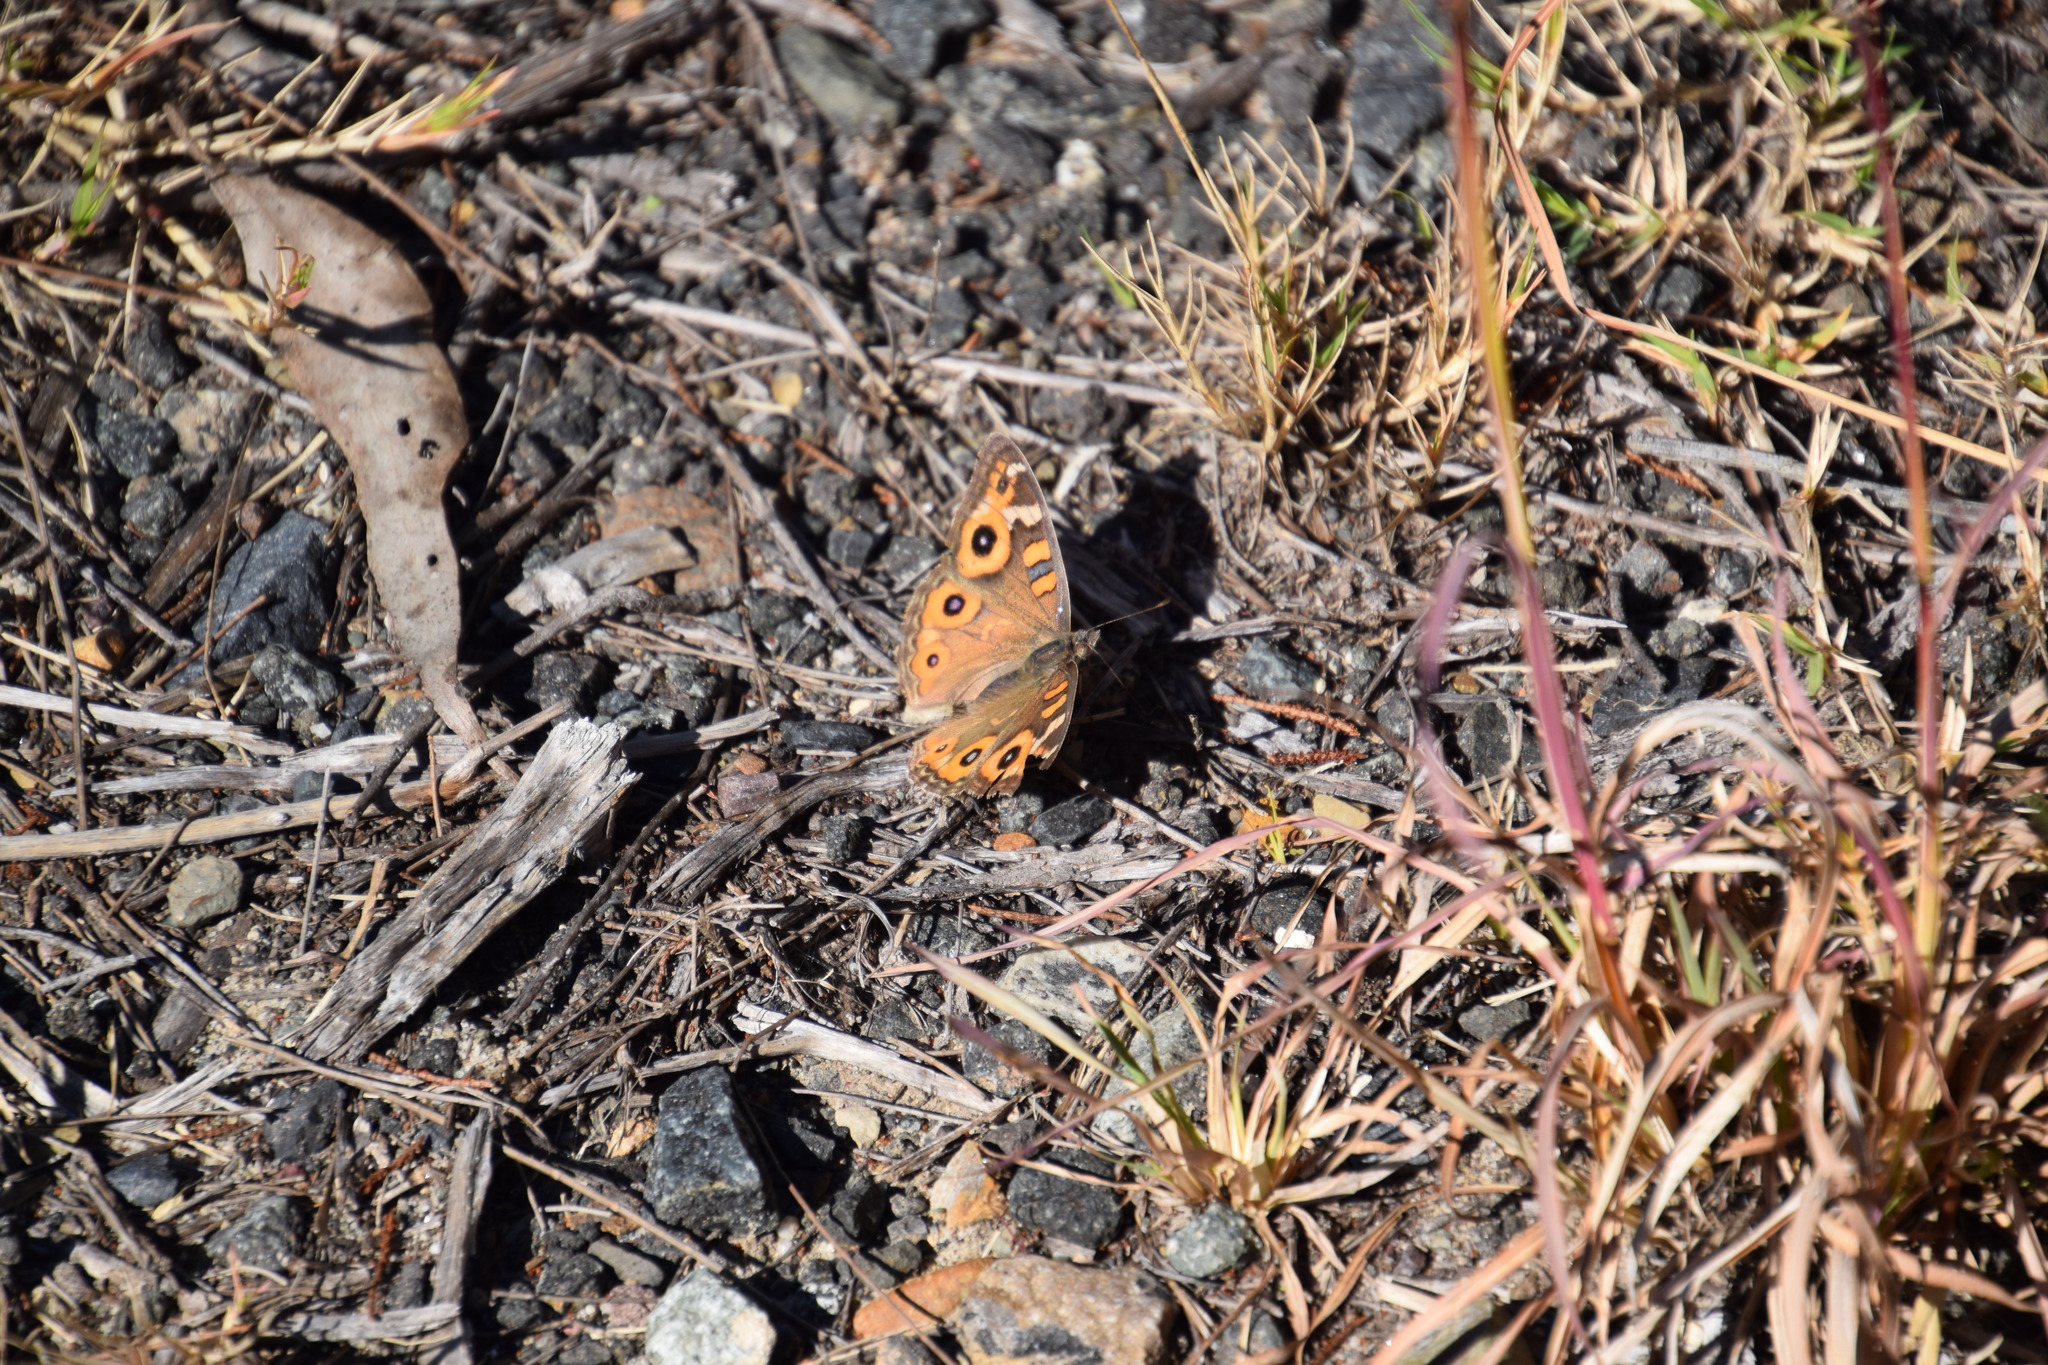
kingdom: Animalia
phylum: Arthropoda
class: Insecta
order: Lepidoptera
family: Nymphalidae
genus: Junonia
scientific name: Junonia villida
